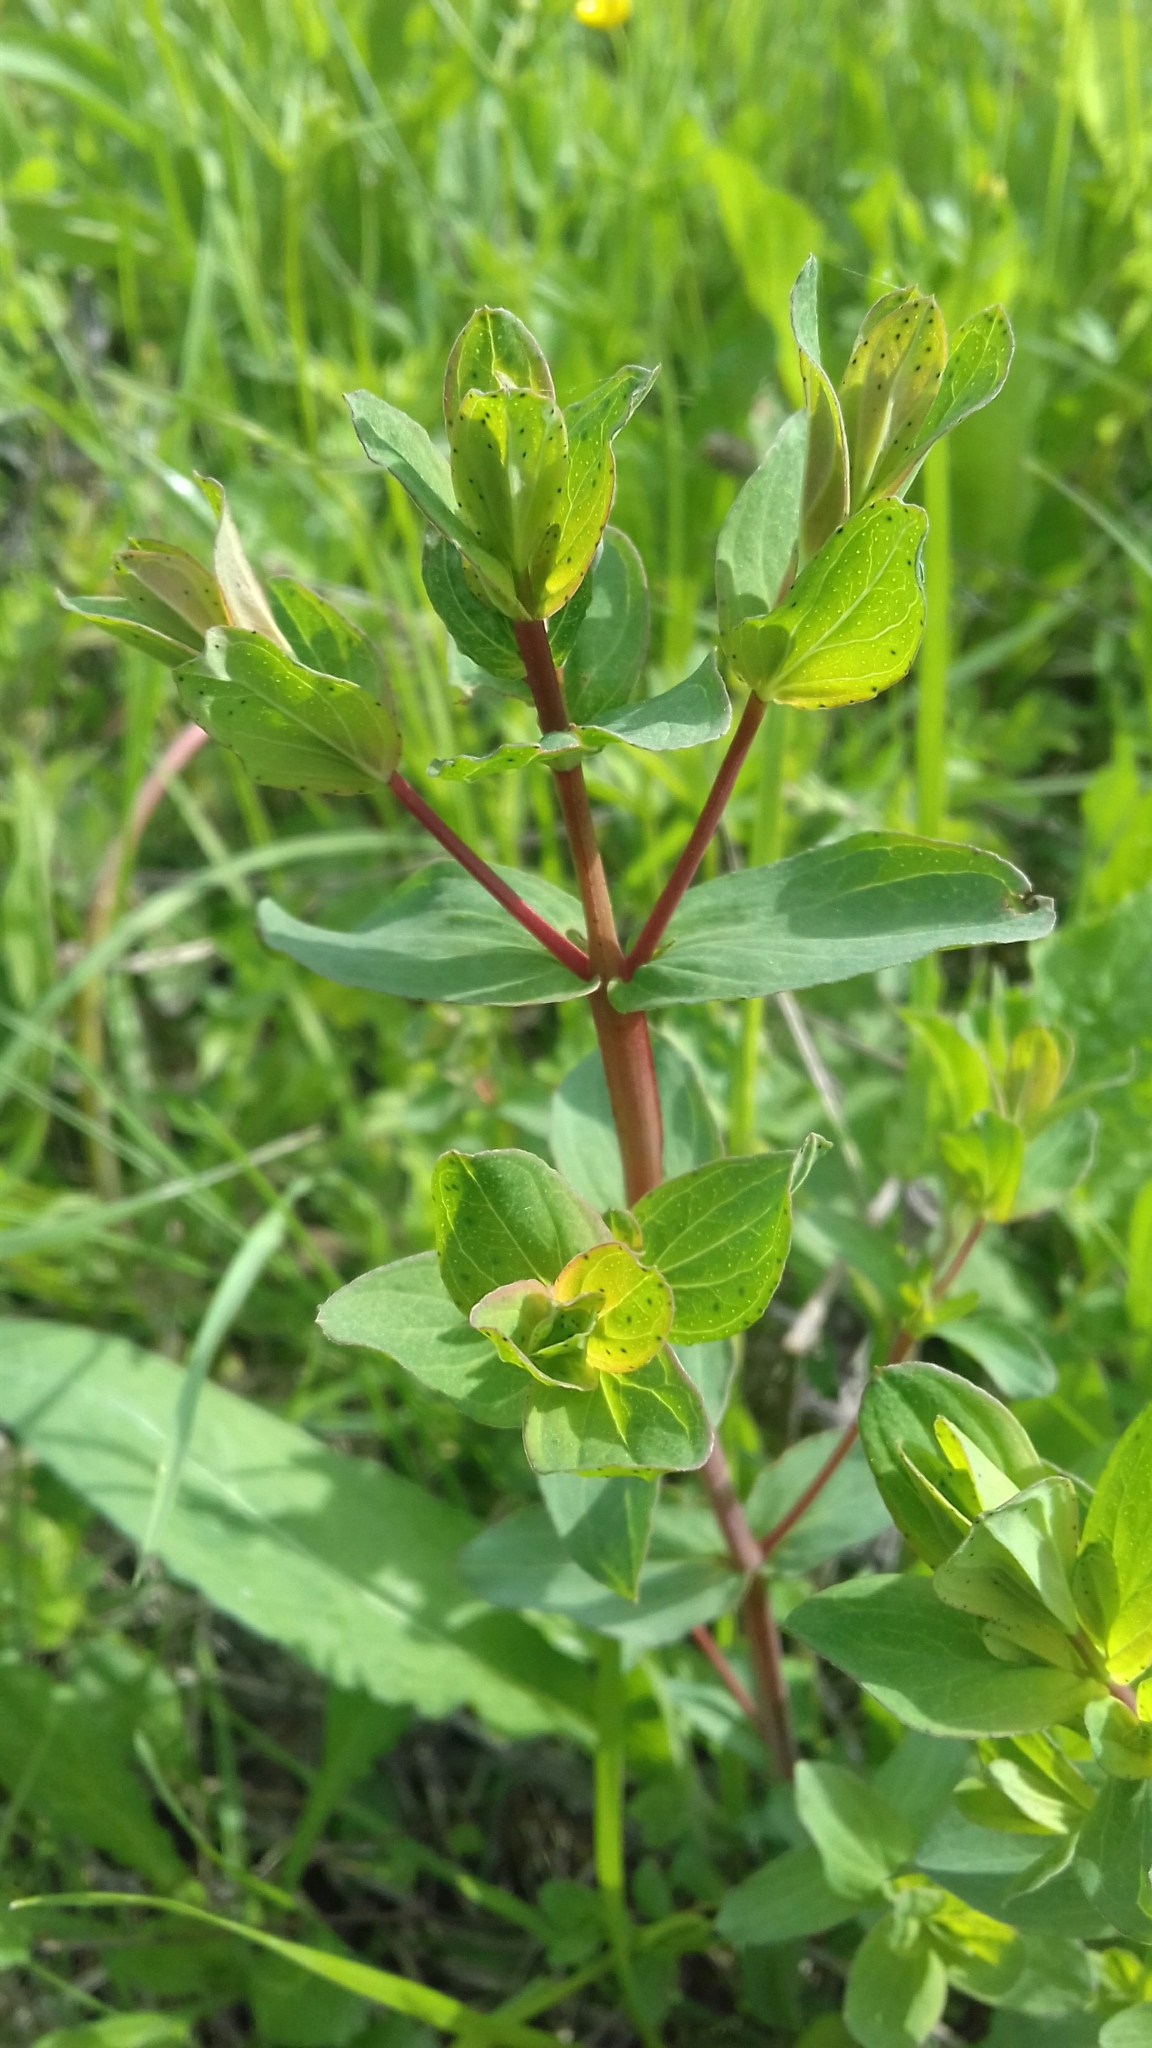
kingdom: Plantae
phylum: Tracheophyta
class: Magnoliopsida
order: Malpighiales
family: Hypericaceae
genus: Hypericum
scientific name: Hypericum maculatum
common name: Imperforate st. john's-wort
